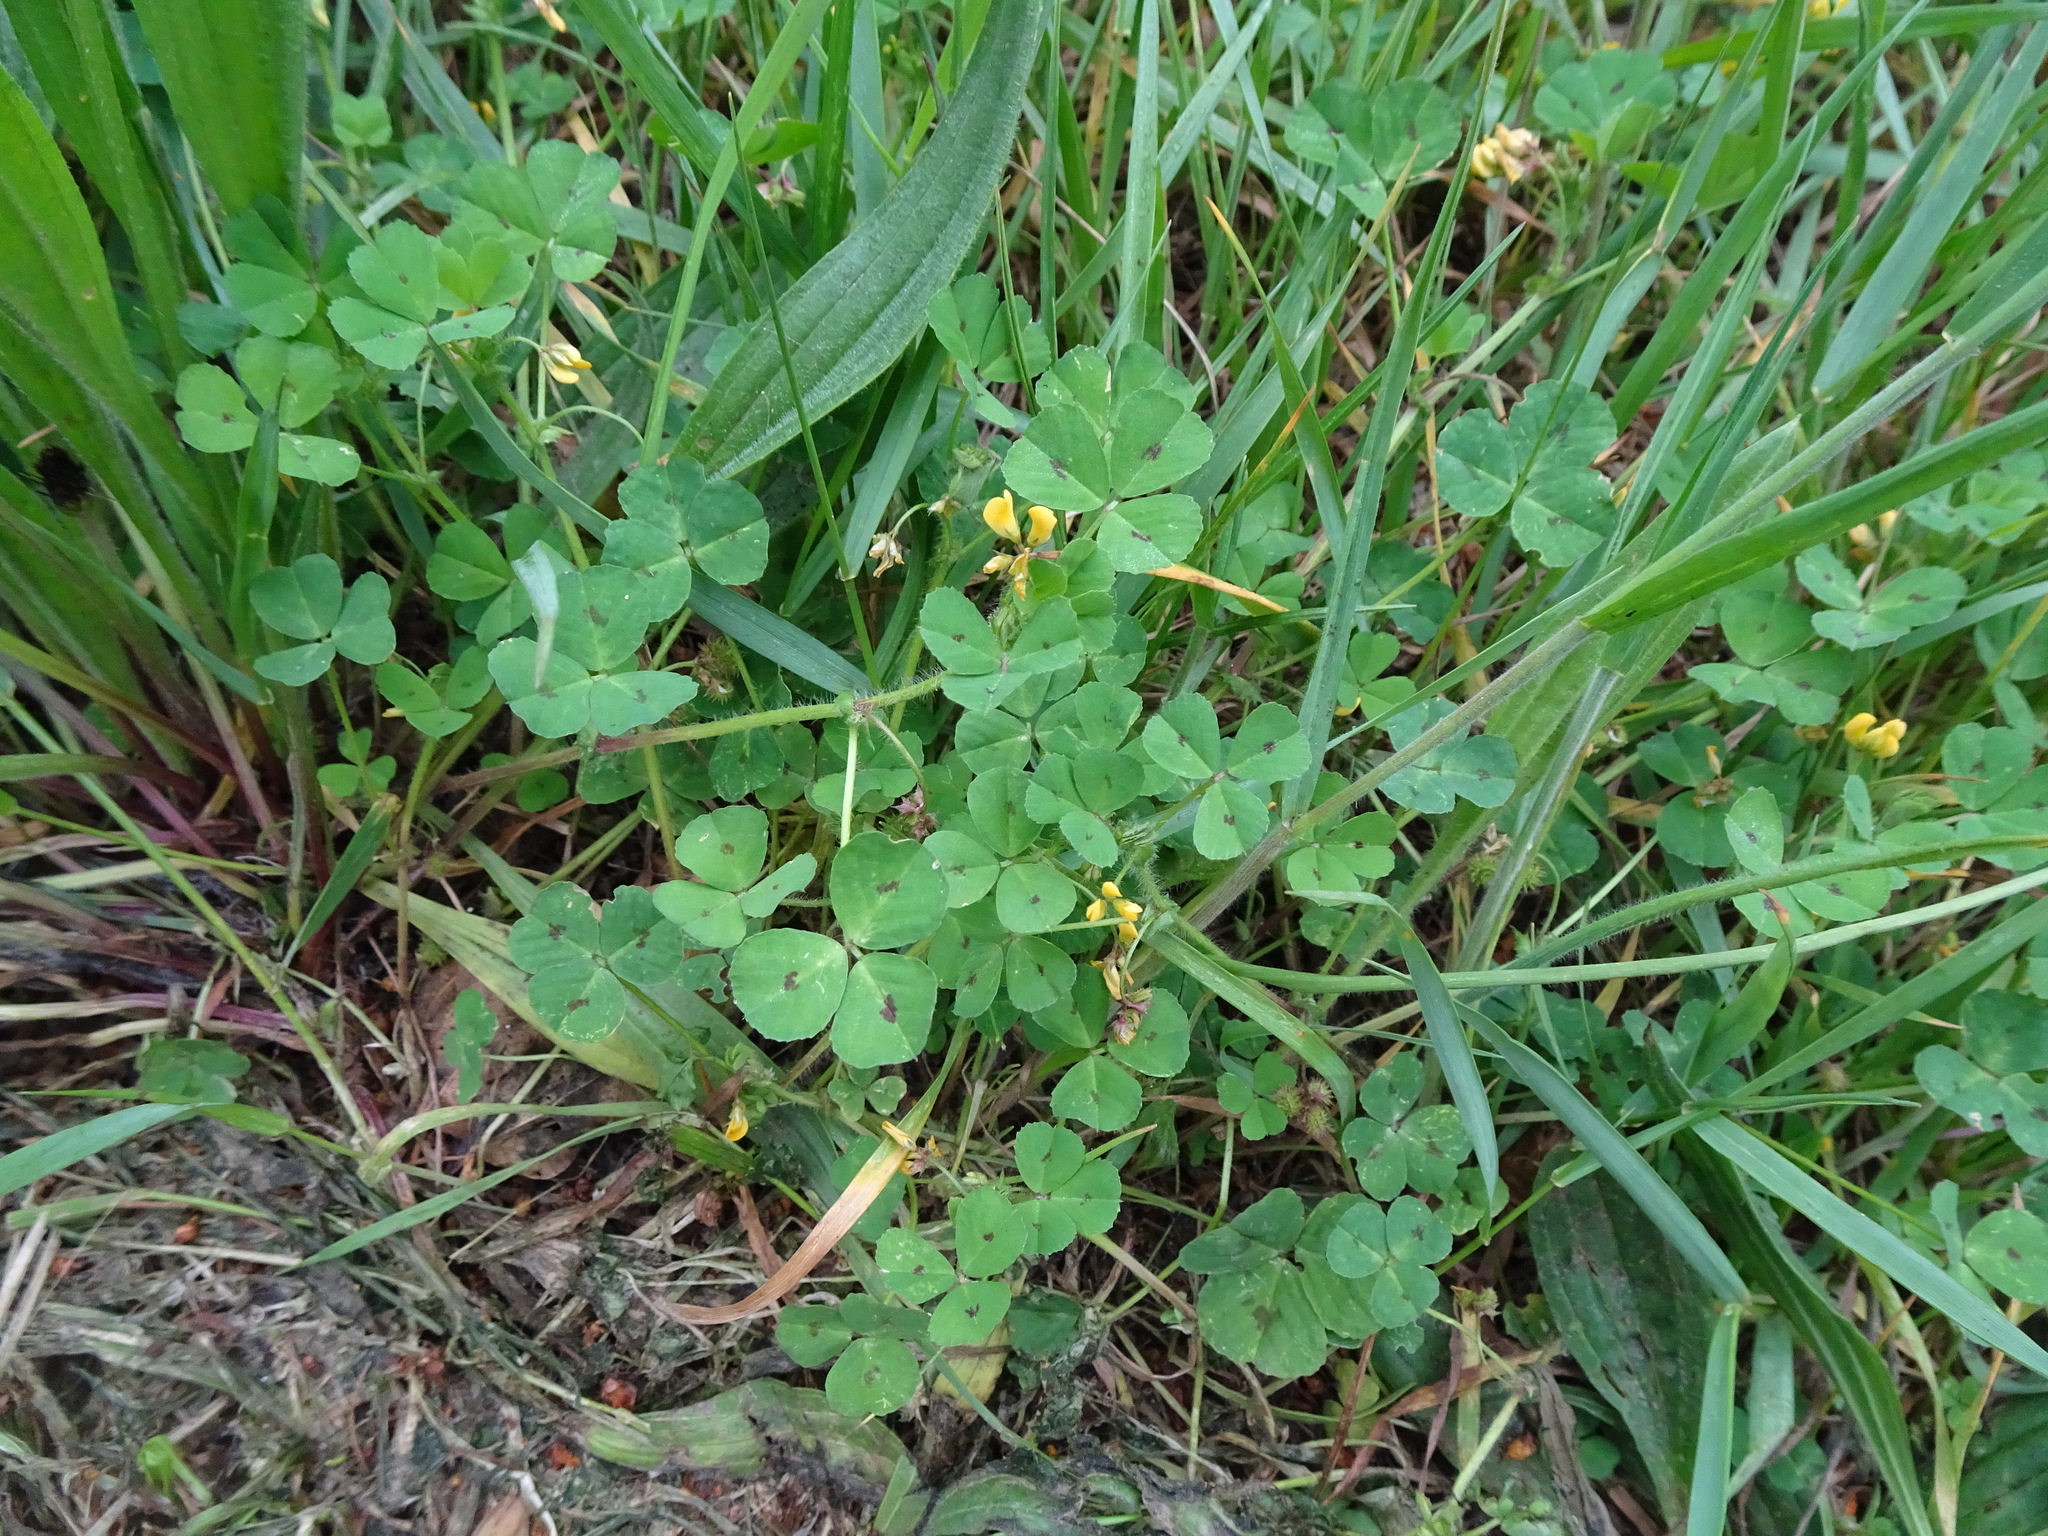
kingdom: Plantae
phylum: Tracheophyta
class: Magnoliopsida
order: Fabales
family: Fabaceae
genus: Medicago
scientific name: Medicago arabica
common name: Spotted medick
